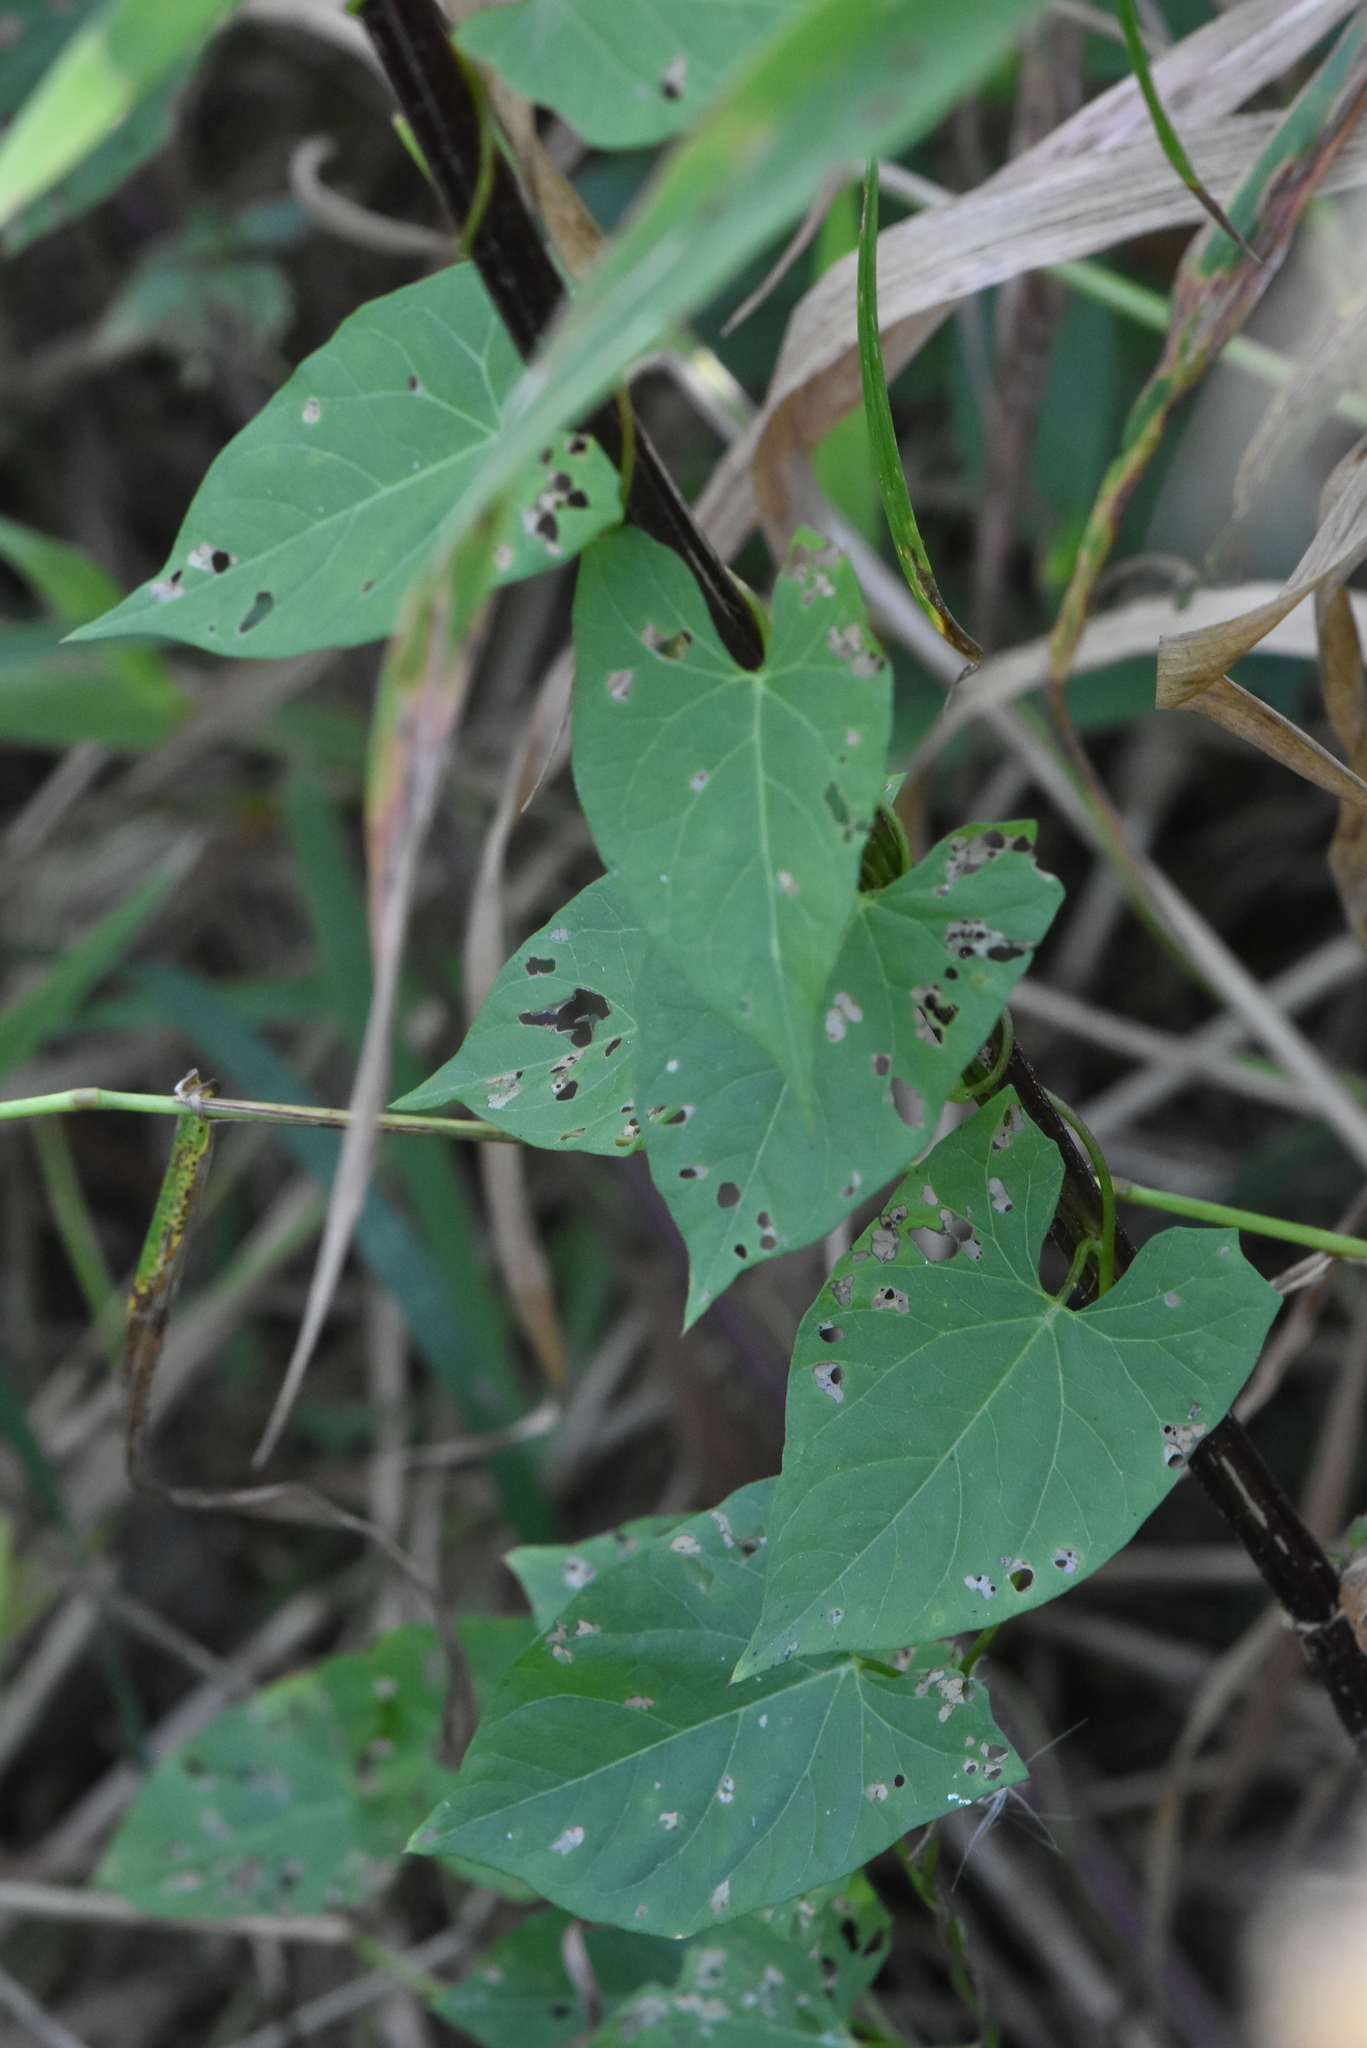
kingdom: Plantae
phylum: Tracheophyta
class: Magnoliopsida
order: Solanales
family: Convolvulaceae
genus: Calystegia
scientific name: Calystegia sepium
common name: Hedge bindweed
